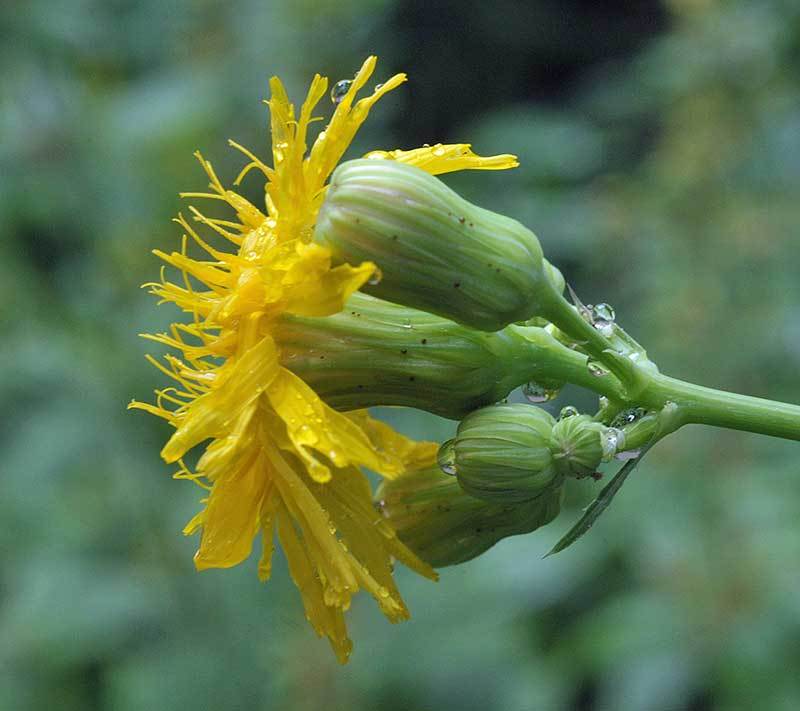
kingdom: Plantae
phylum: Tracheophyta
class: Magnoliopsida
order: Asterales
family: Asteraceae
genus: Sonchus
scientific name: Sonchus arvensis
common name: Perennial sow-thistle
